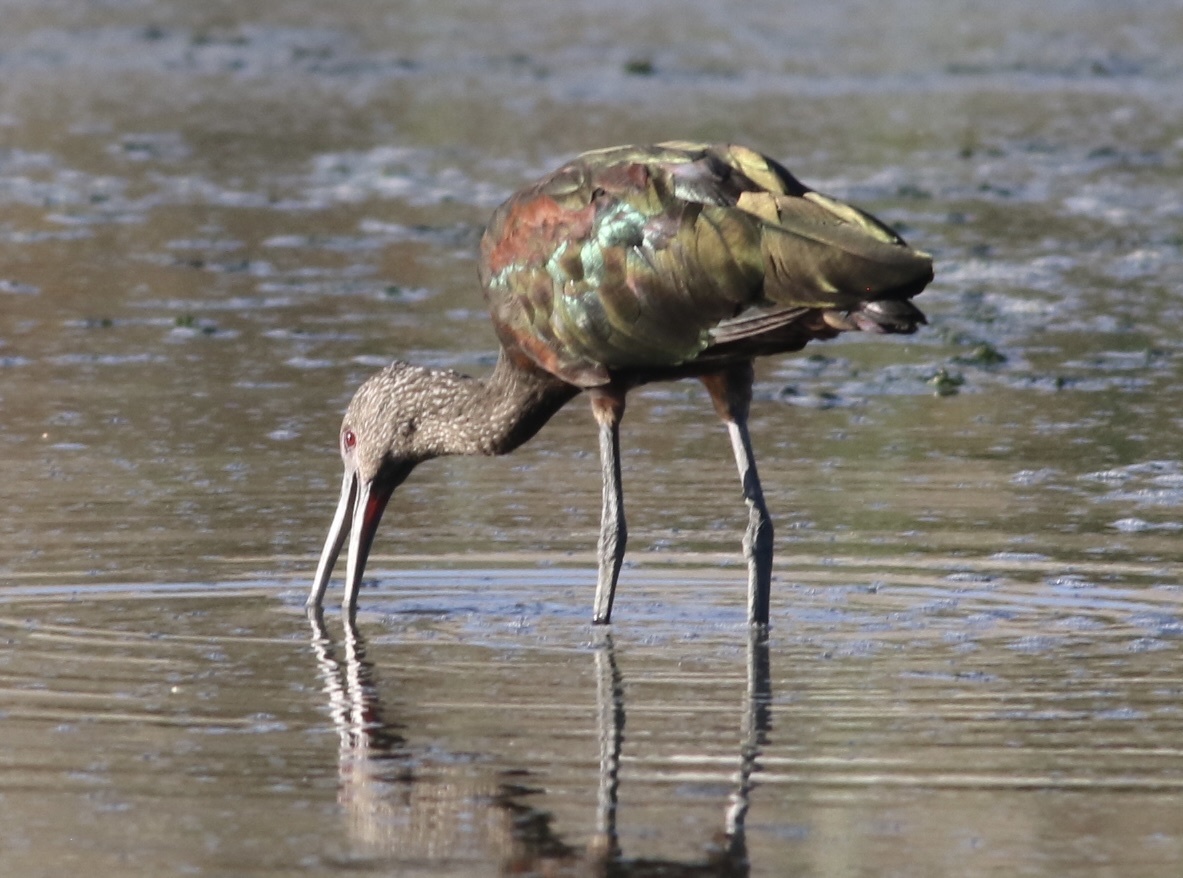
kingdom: Animalia
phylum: Chordata
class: Aves
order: Pelecaniformes
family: Threskiornithidae
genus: Plegadis
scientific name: Plegadis chihi
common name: White-faced ibis
